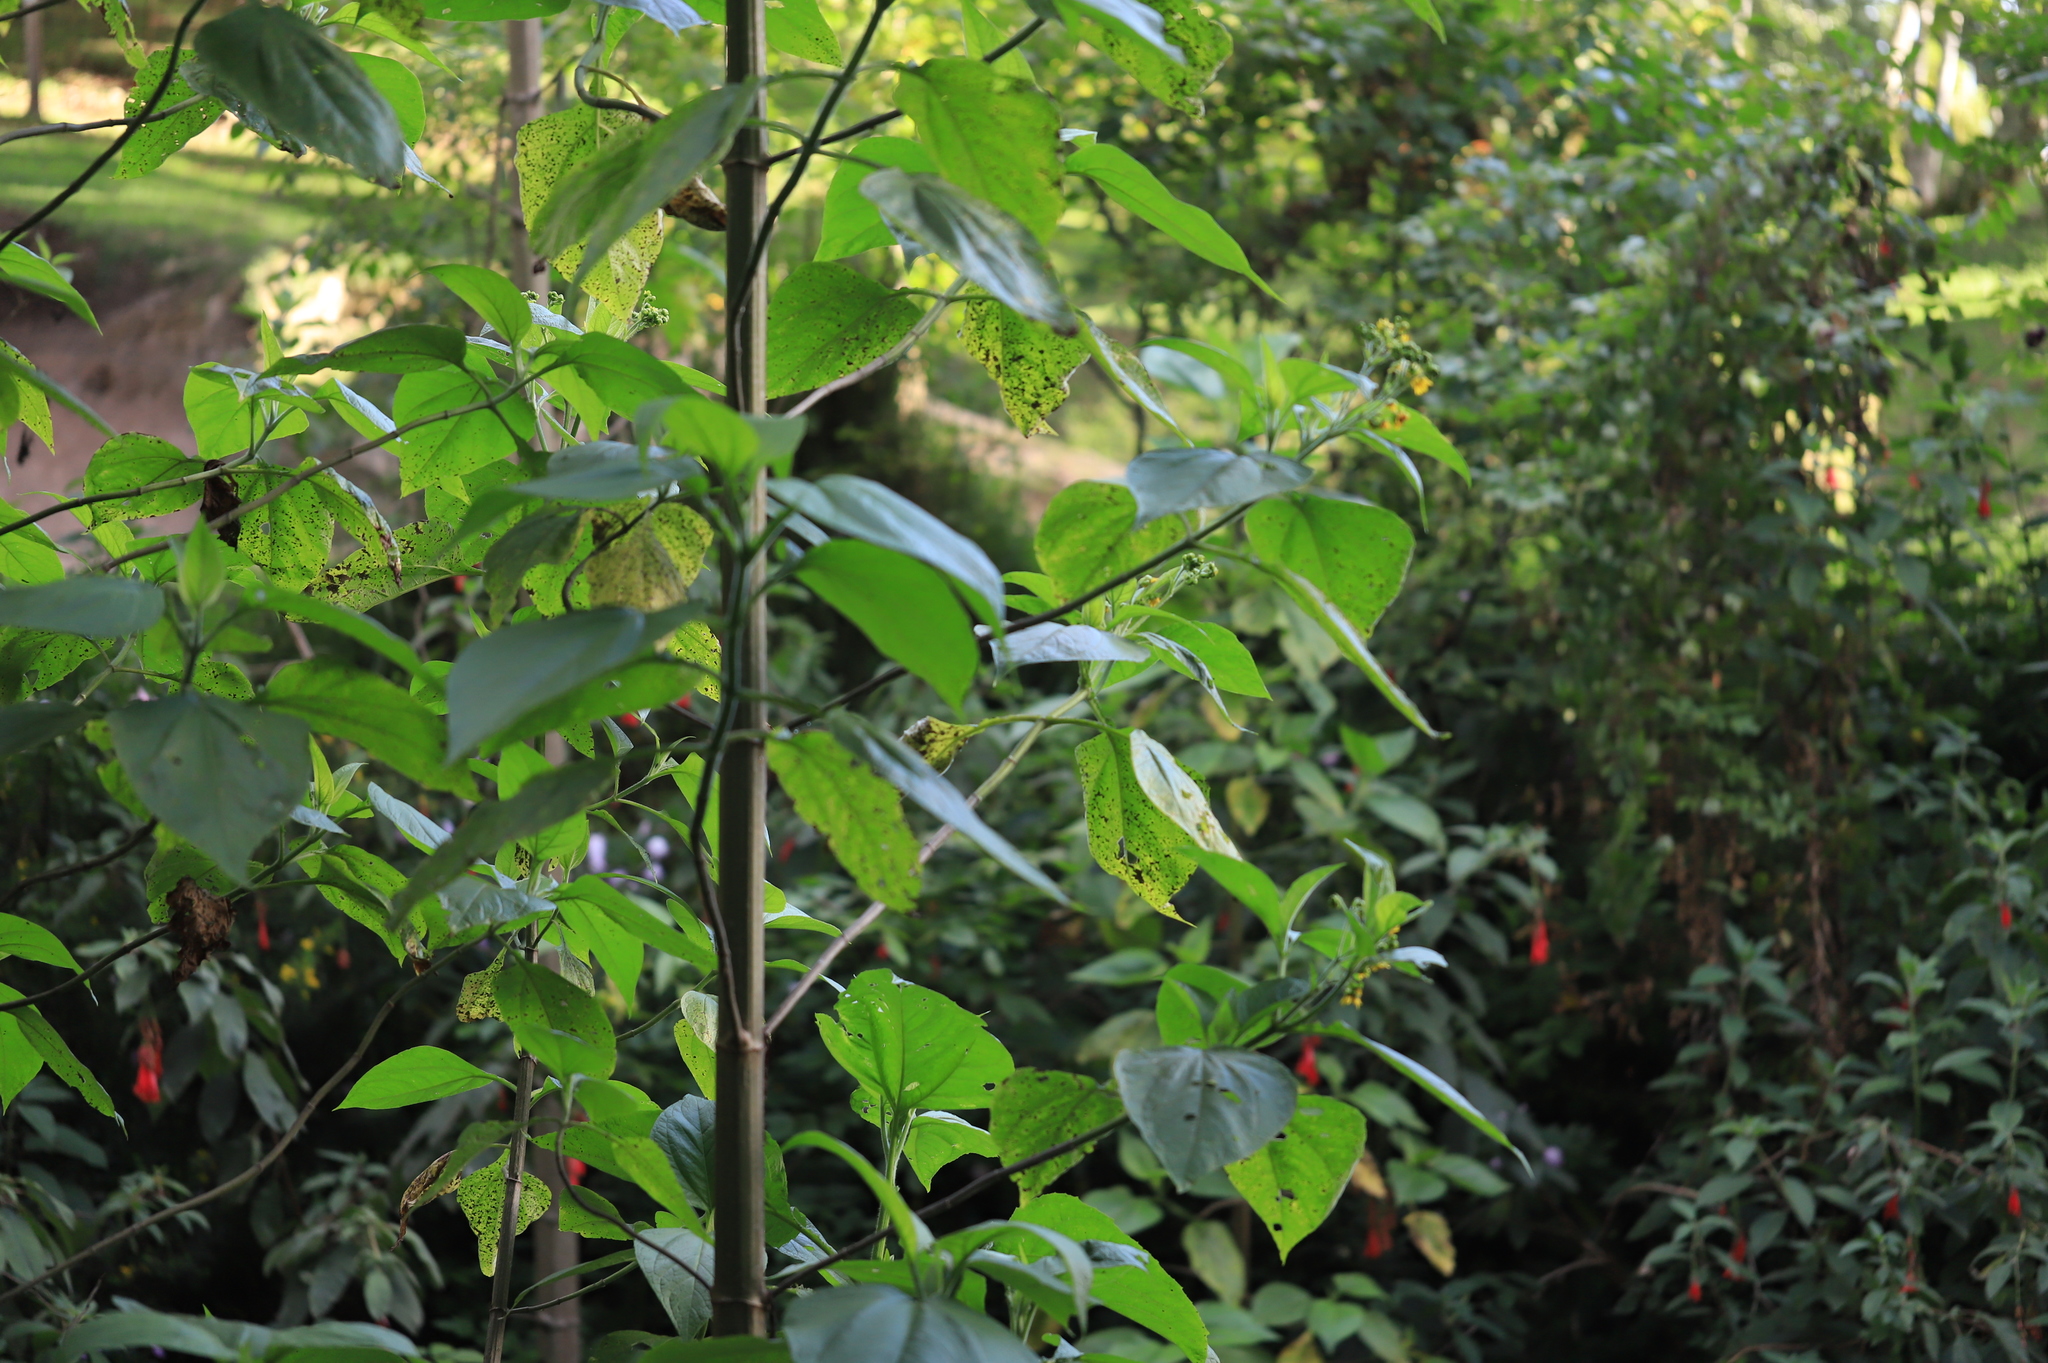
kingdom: Plantae
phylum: Tracheophyta
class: Magnoliopsida
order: Asterales
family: Asteraceae
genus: Smallanthus
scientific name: Smallanthus pyramidalis
